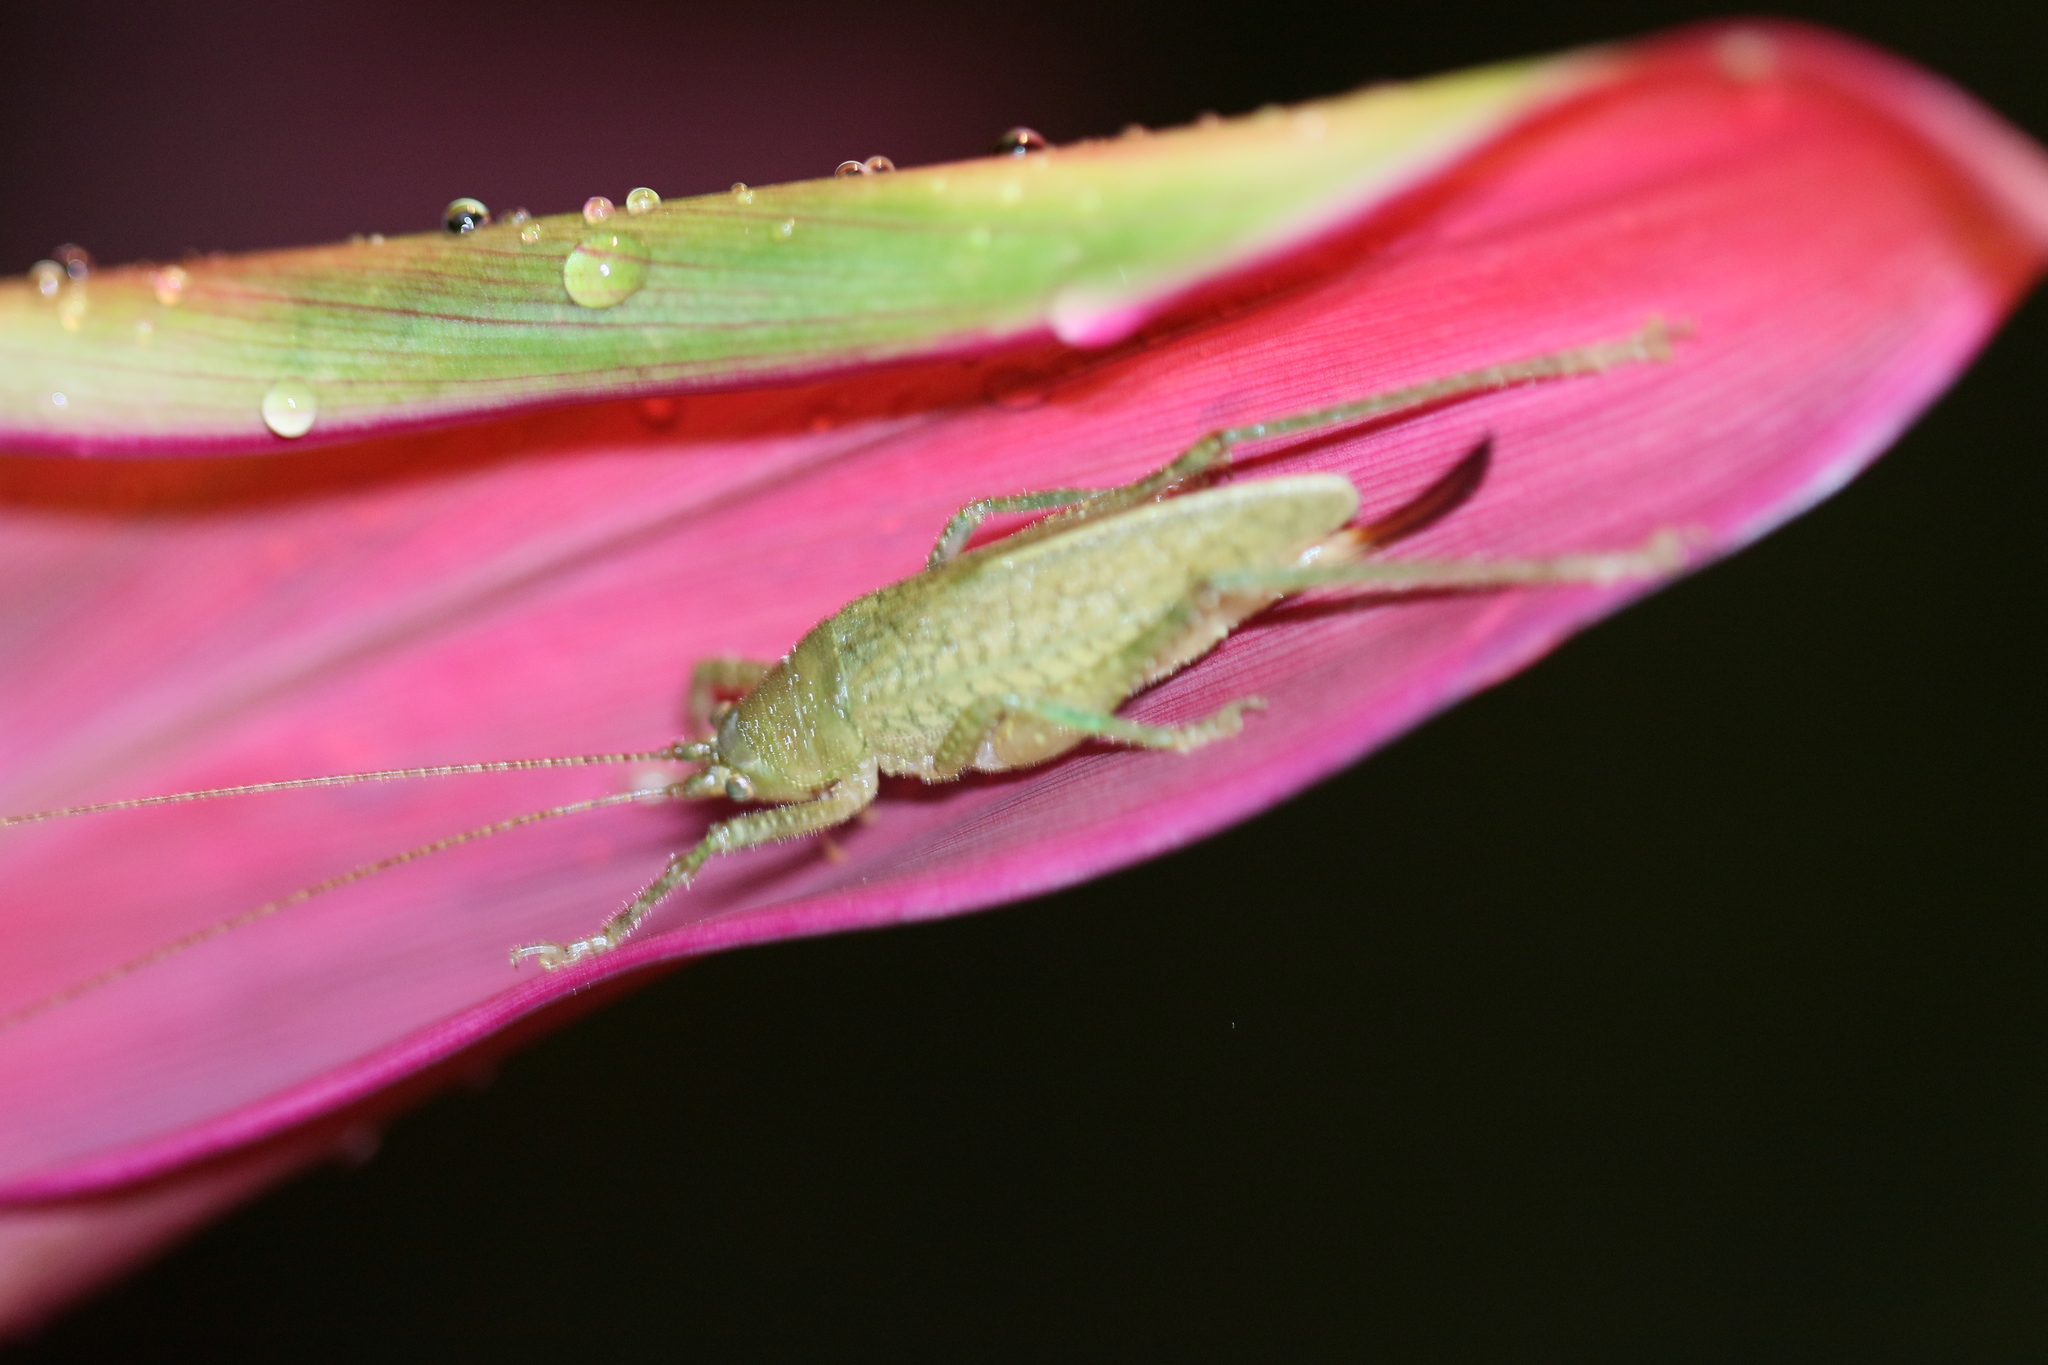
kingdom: Animalia
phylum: Arthropoda
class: Insecta
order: Orthoptera
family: Tettigoniidae
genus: Thamnobates
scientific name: Thamnobates subfalcata
